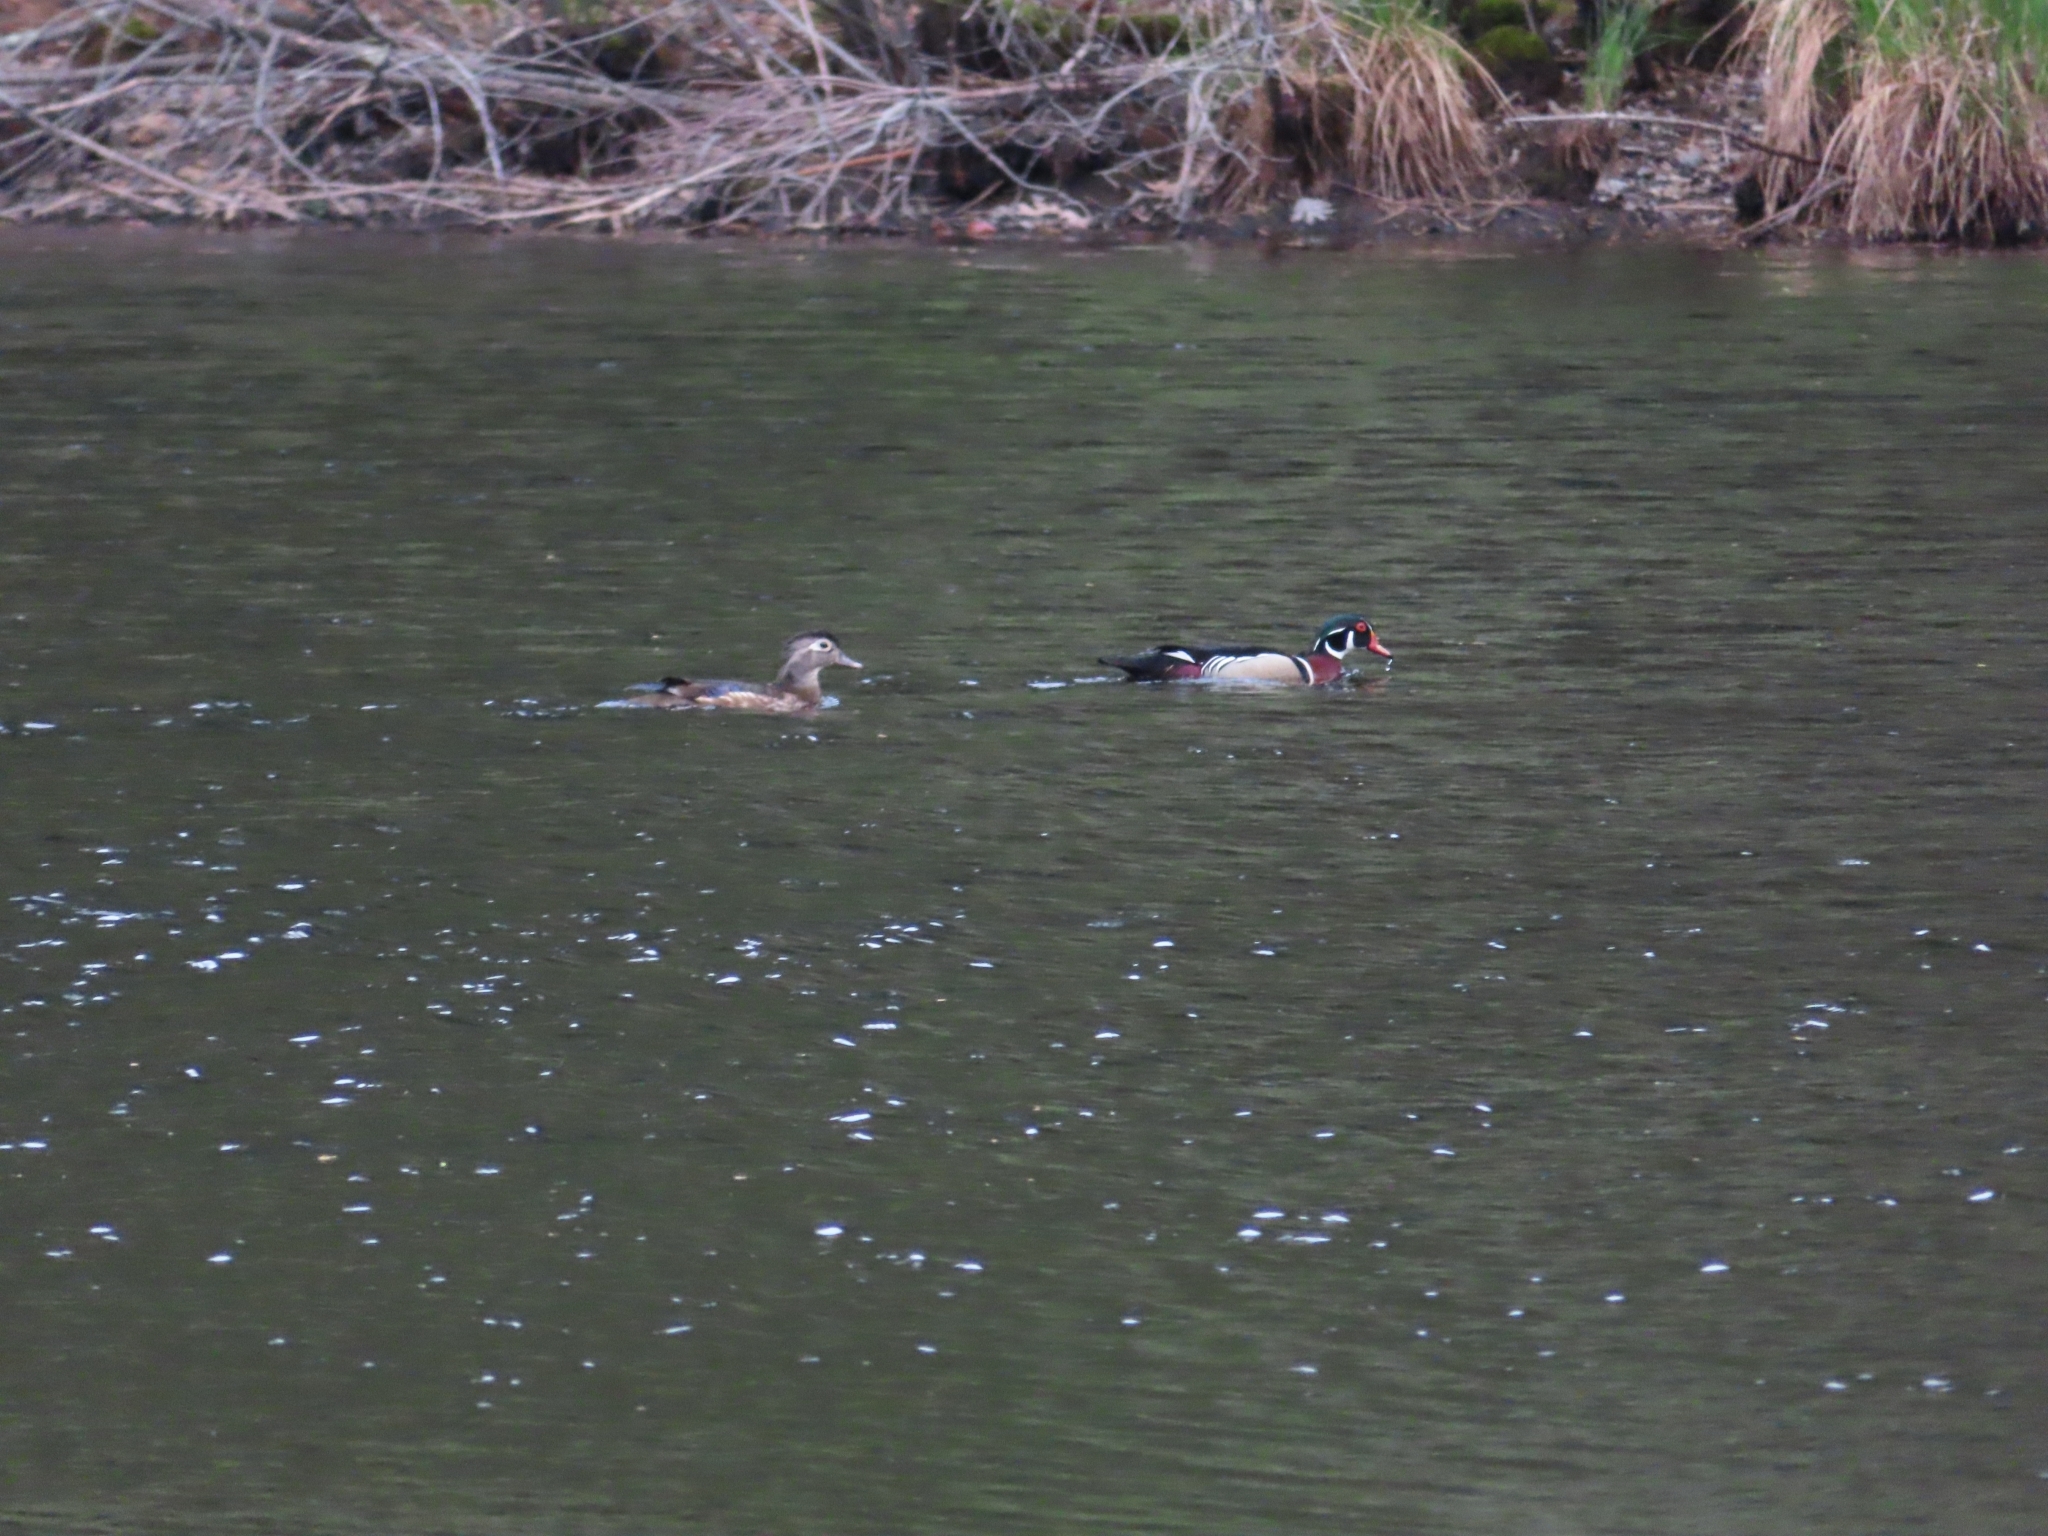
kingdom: Animalia
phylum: Chordata
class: Aves
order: Anseriformes
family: Anatidae
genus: Aix
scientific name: Aix sponsa
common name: Wood duck
